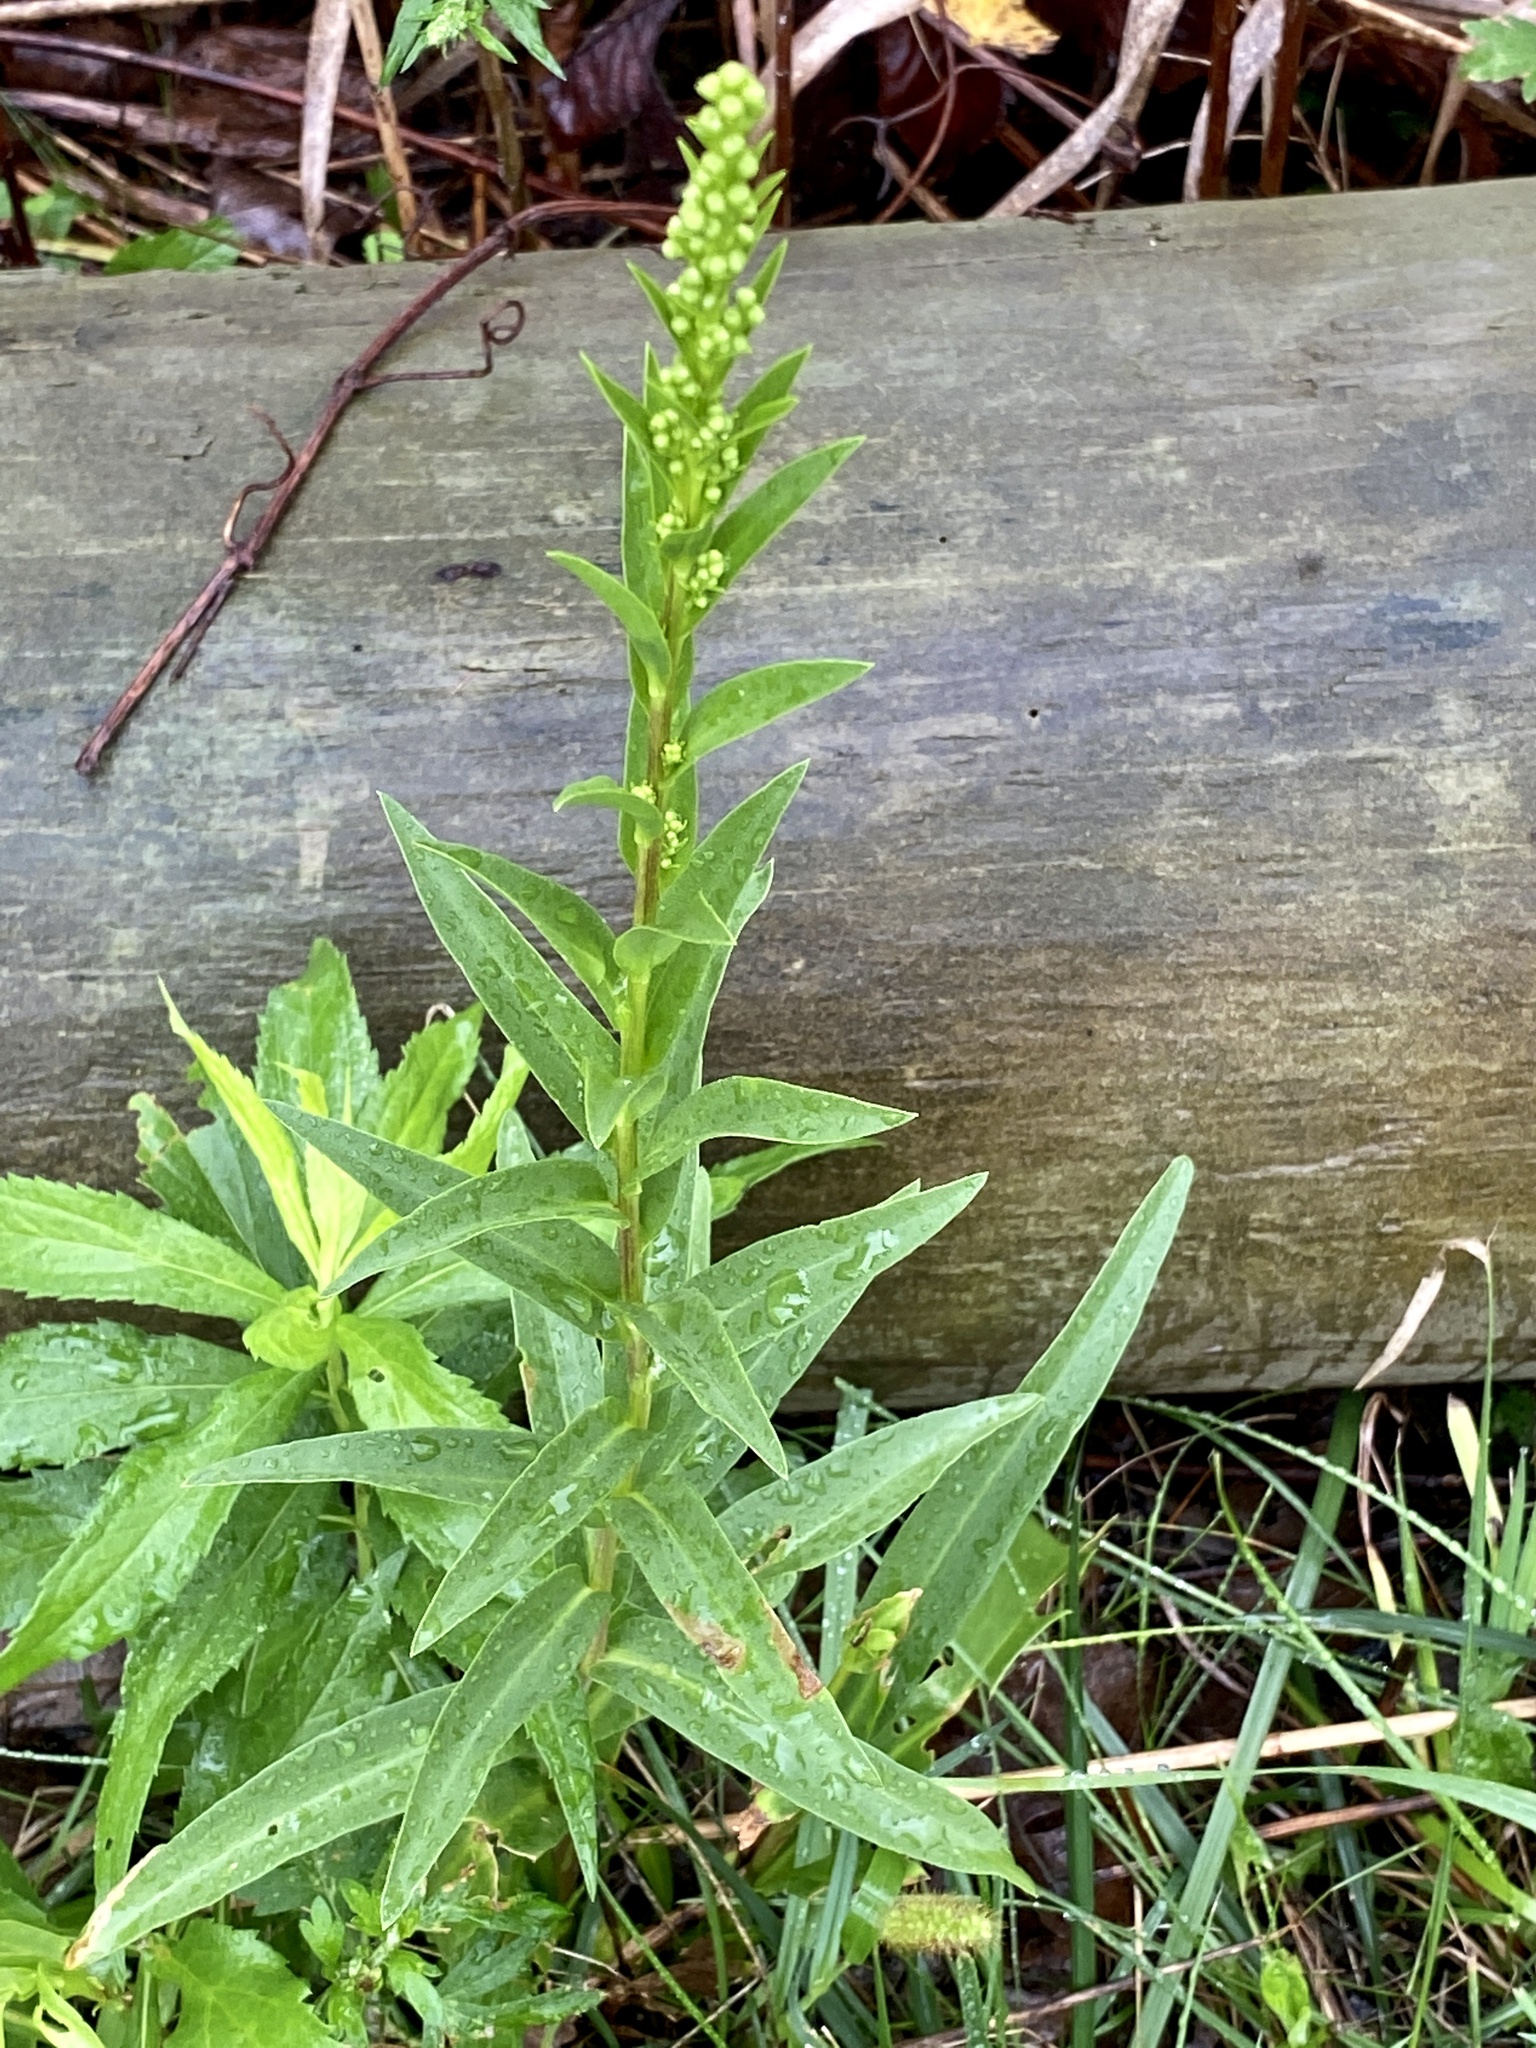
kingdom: Plantae
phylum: Tracheophyta
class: Magnoliopsida
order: Asterales
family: Asteraceae
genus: Solidago
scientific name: Solidago sempervirens
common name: Salt-marsh goldenrod
